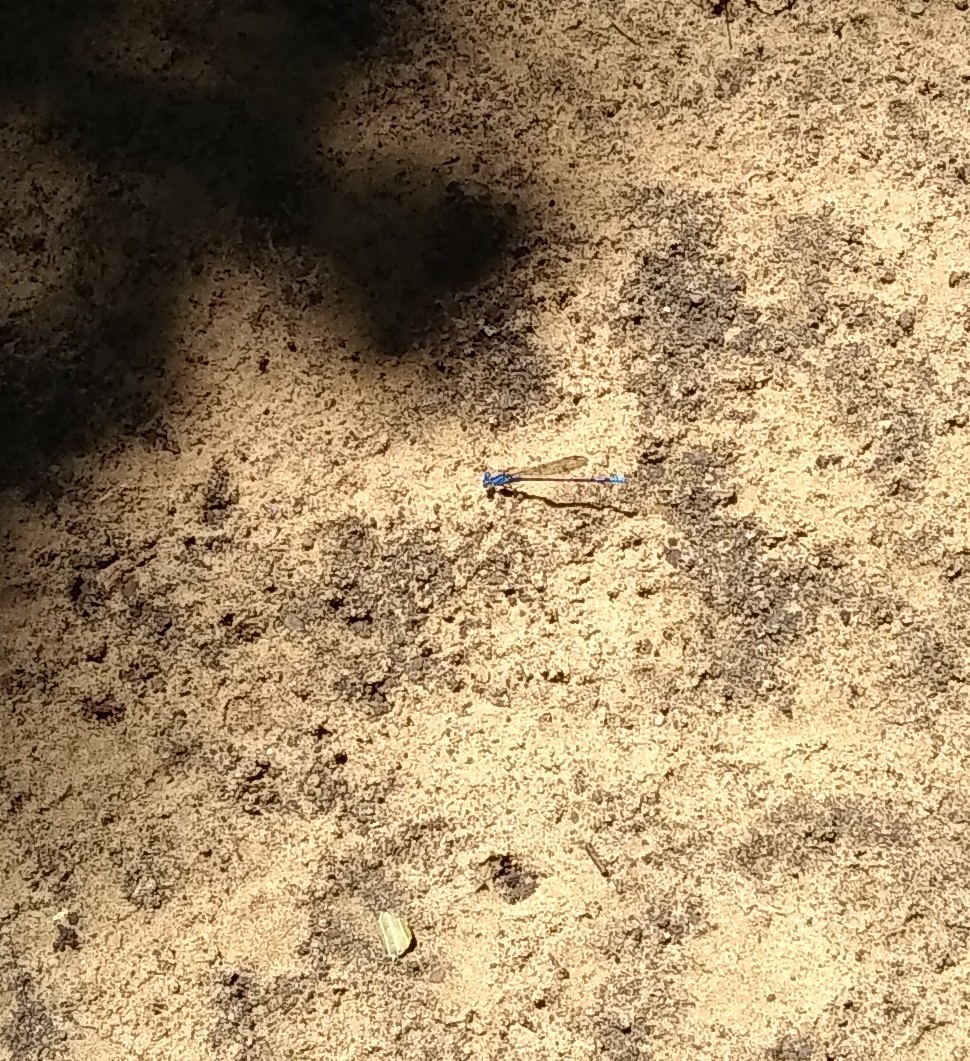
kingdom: Animalia
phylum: Arthropoda
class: Insecta
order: Odonata
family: Coenagrionidae
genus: Argia
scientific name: Argia sedula
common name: Blue-ringed dancer
